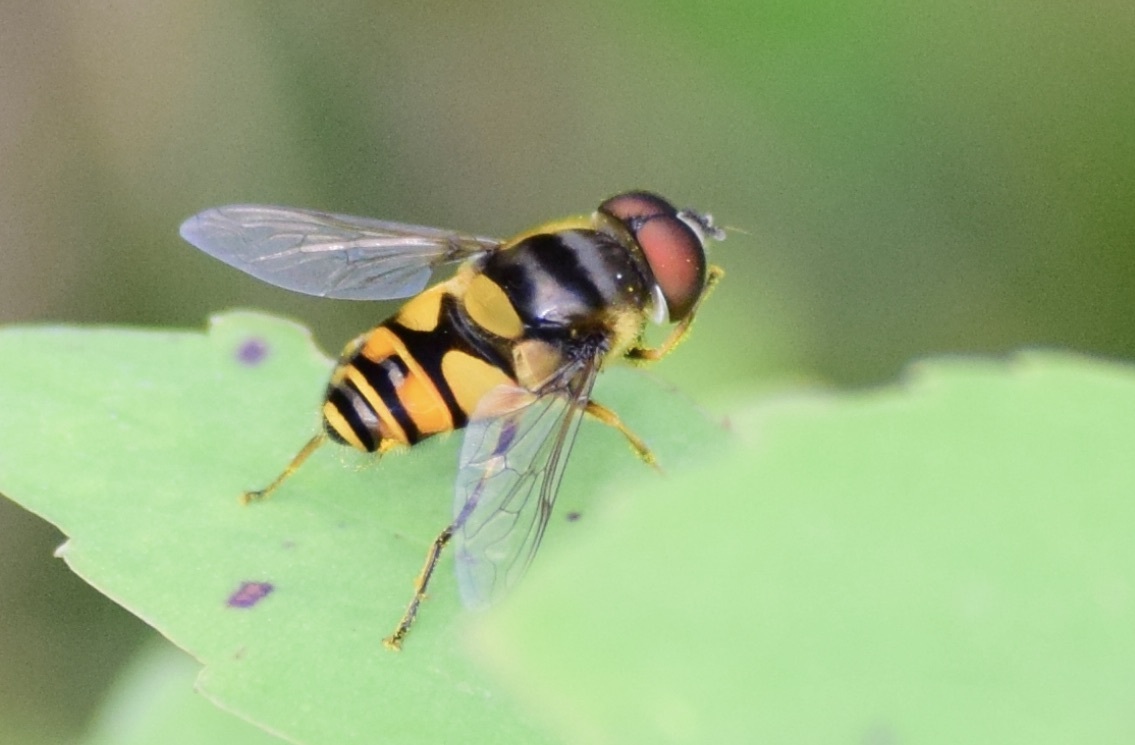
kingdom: Animalia
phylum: Arthropoda
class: Insecta
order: Diptera
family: Syrphidae
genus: Eristalis
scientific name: Eristalis transversa
